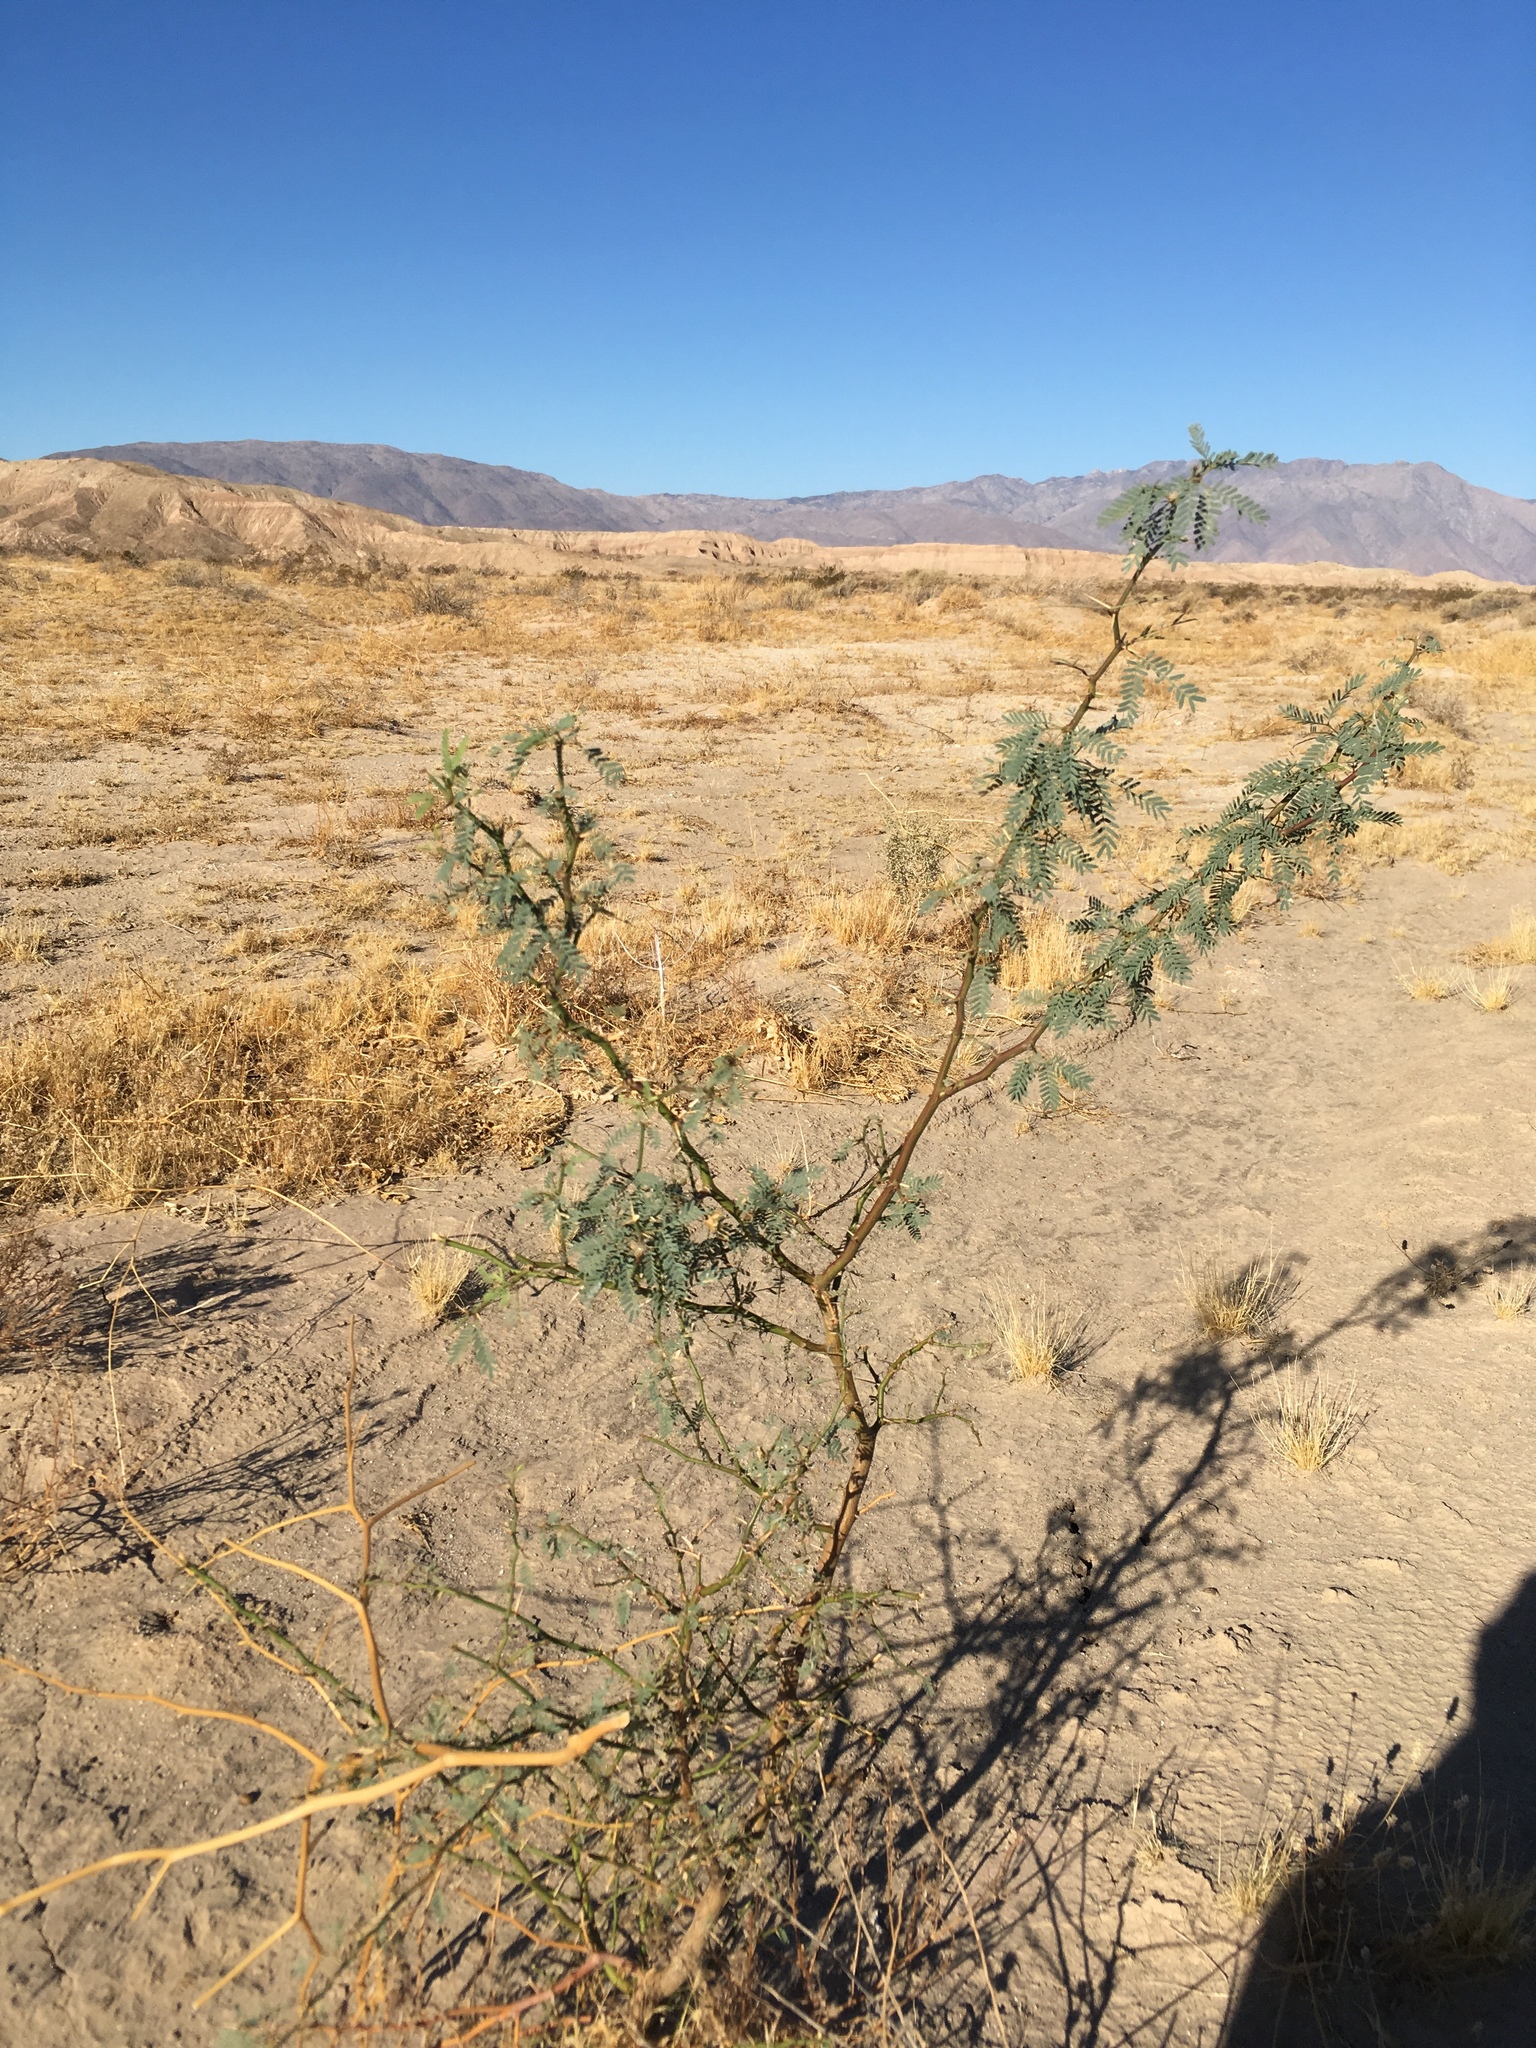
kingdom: Plantae
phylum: Tracheophyta
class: Magnoliopsida
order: Fabales
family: Fabaceae
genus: Prosopis
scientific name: Prosopis pubescens
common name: Screw-bean
